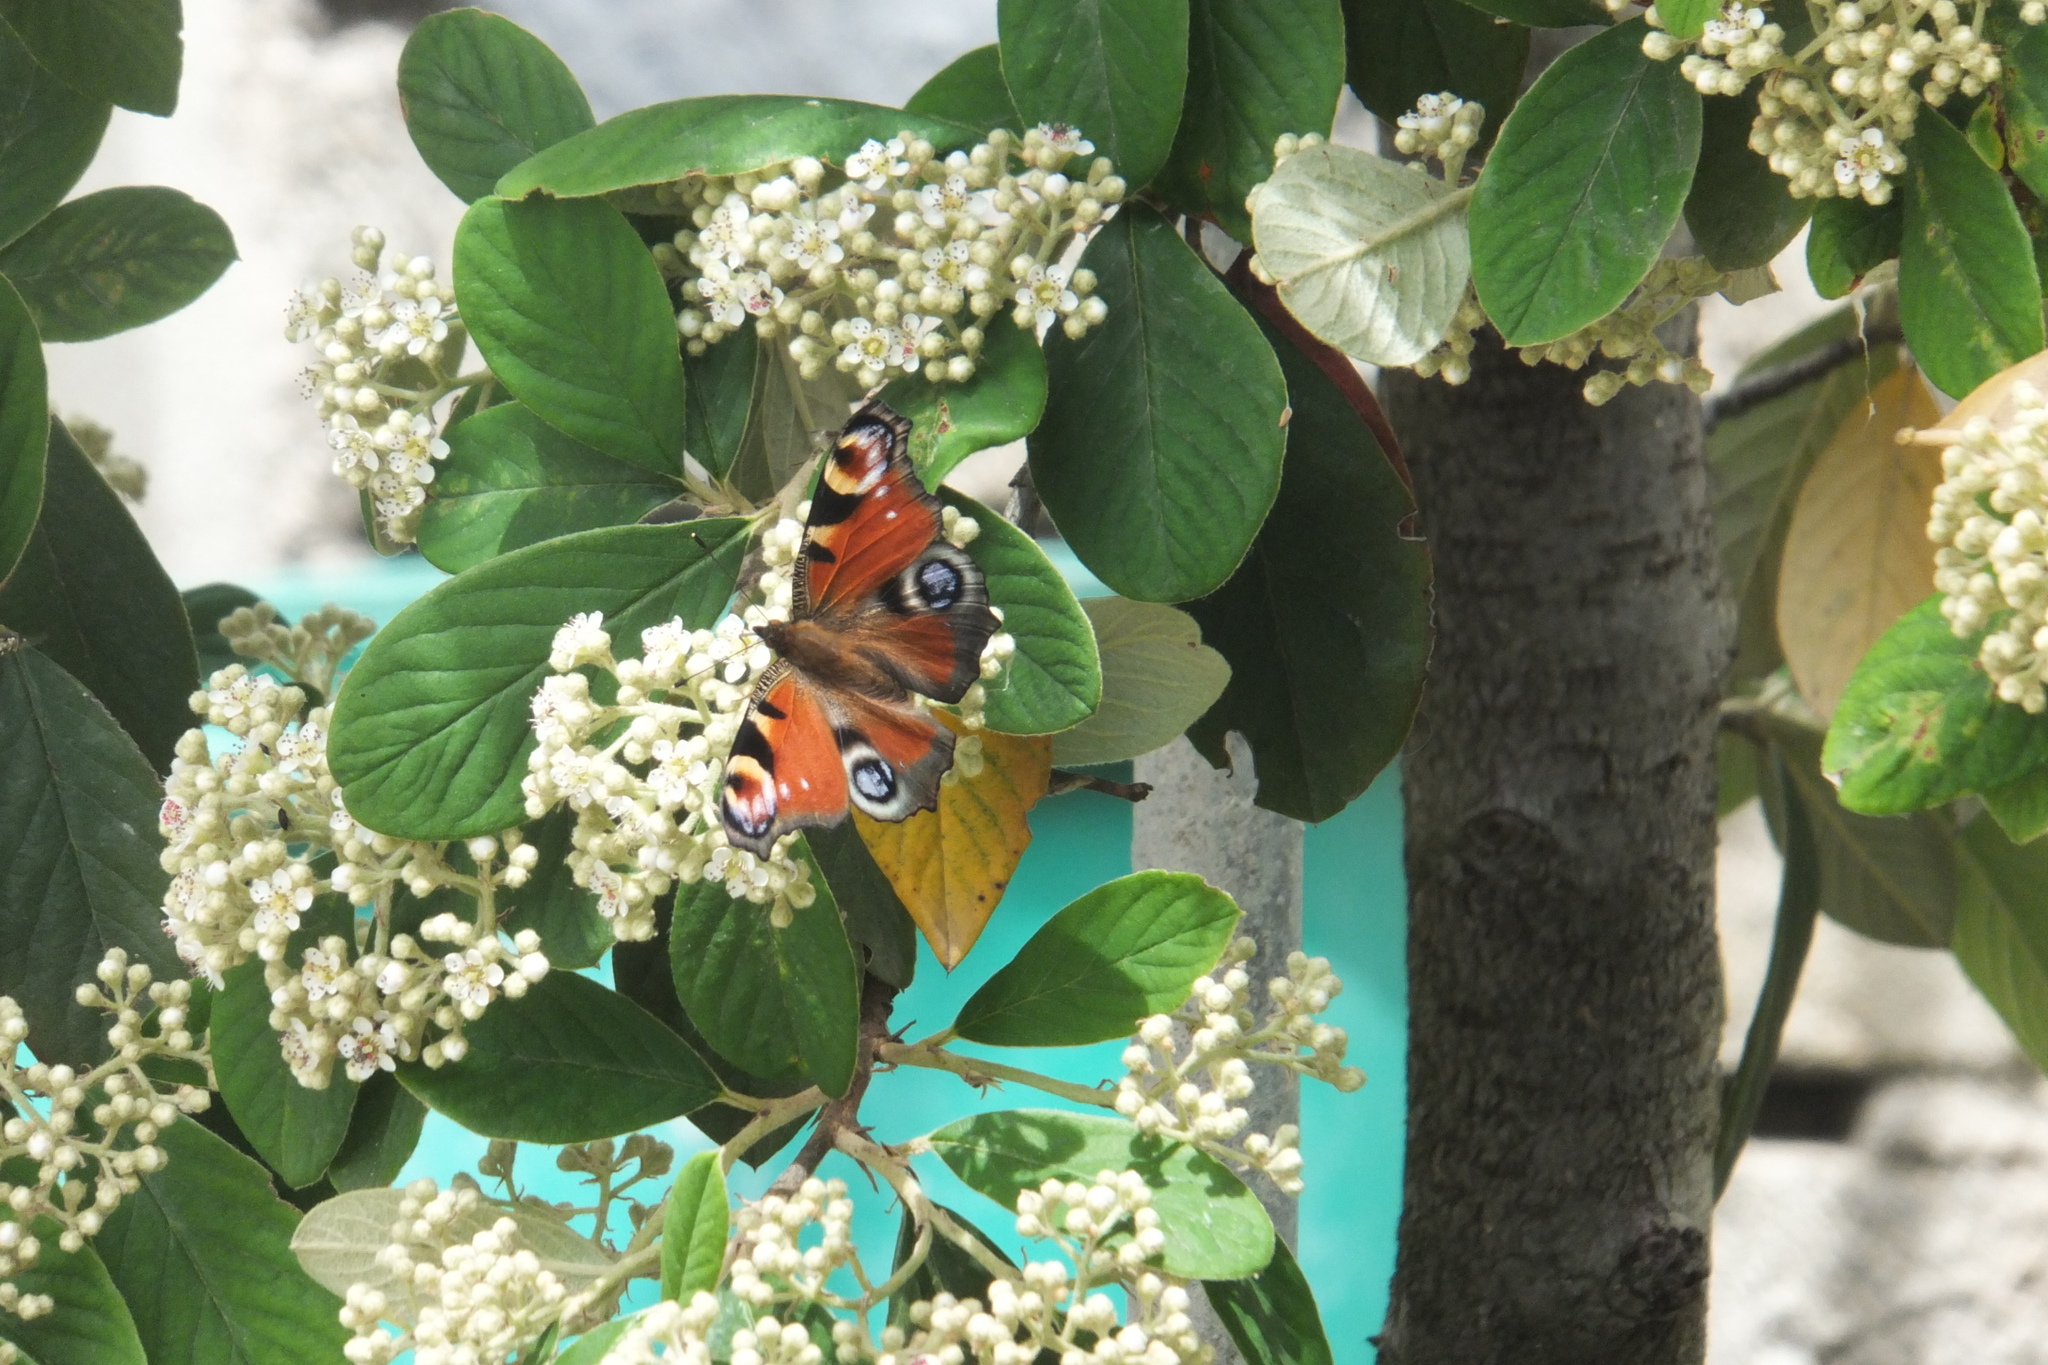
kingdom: Animalia
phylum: Arthropoda
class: Insecta
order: Lepidoptera
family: Nymphalidae
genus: Aglais
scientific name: Aglais io
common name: Peacock
